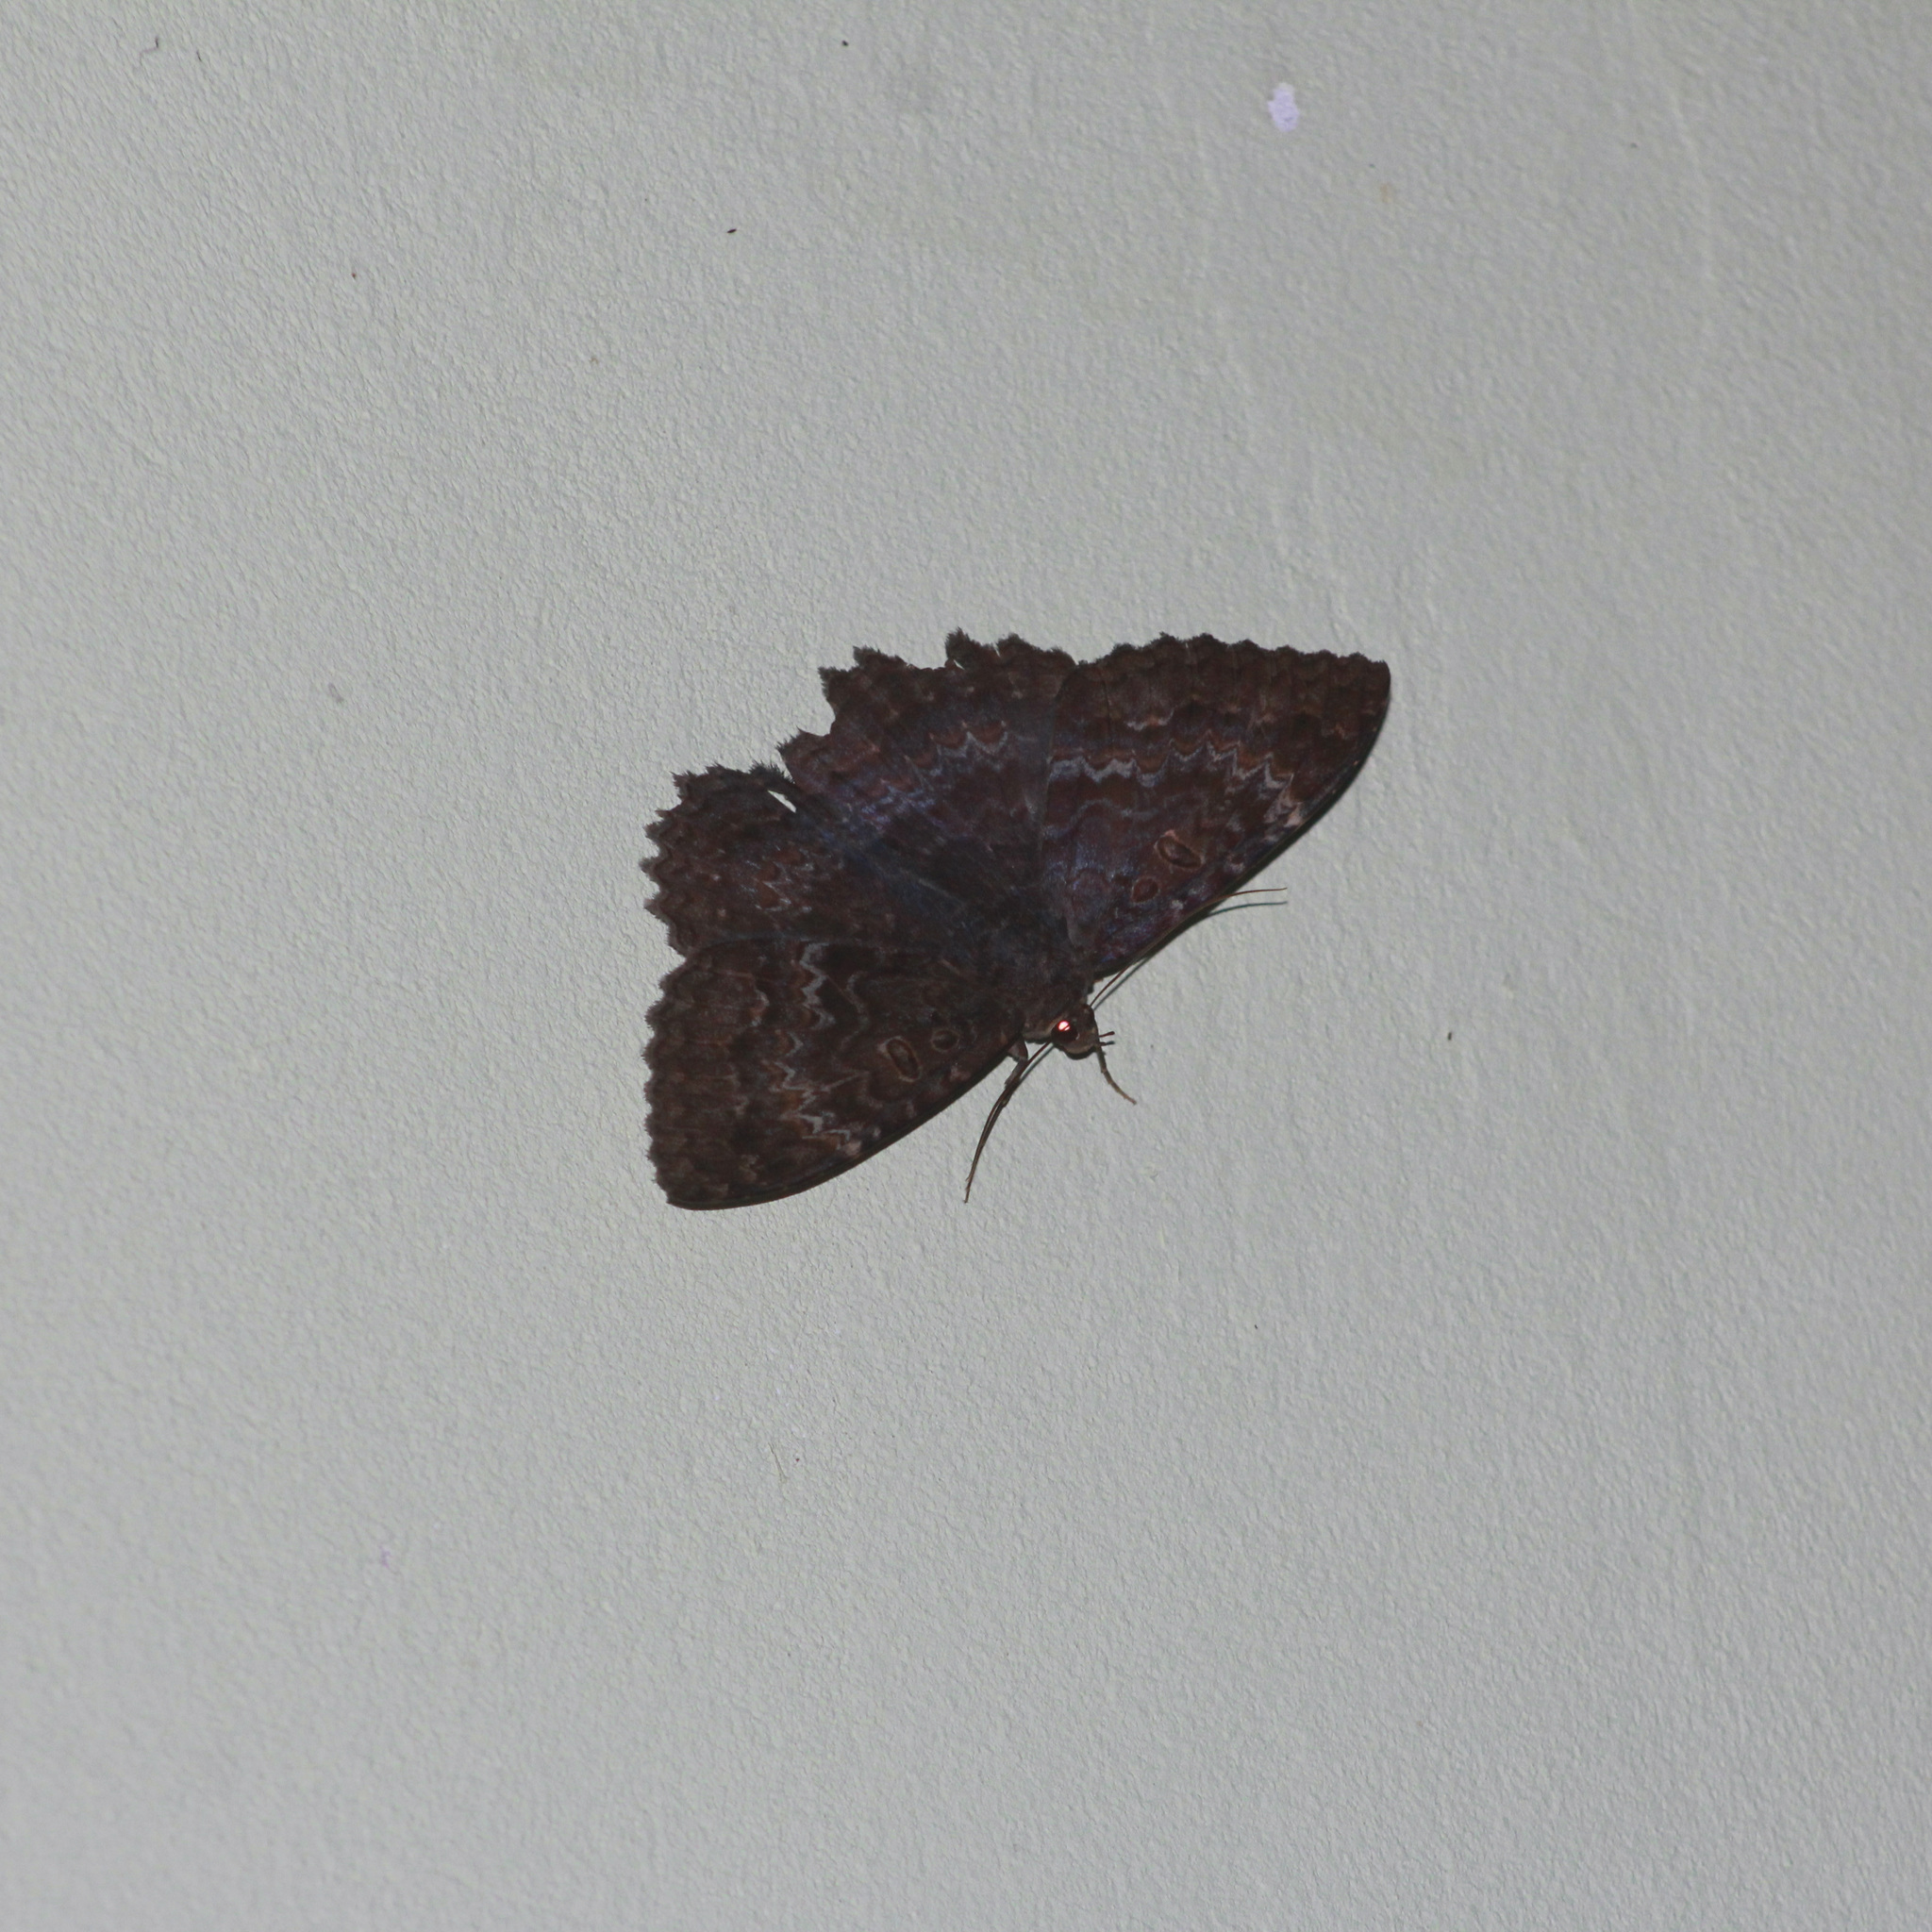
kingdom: Animalia
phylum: Arthropoda
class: Insecta
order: Lepidoptera
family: Erebidae
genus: Letis
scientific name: Letis iphianasse
